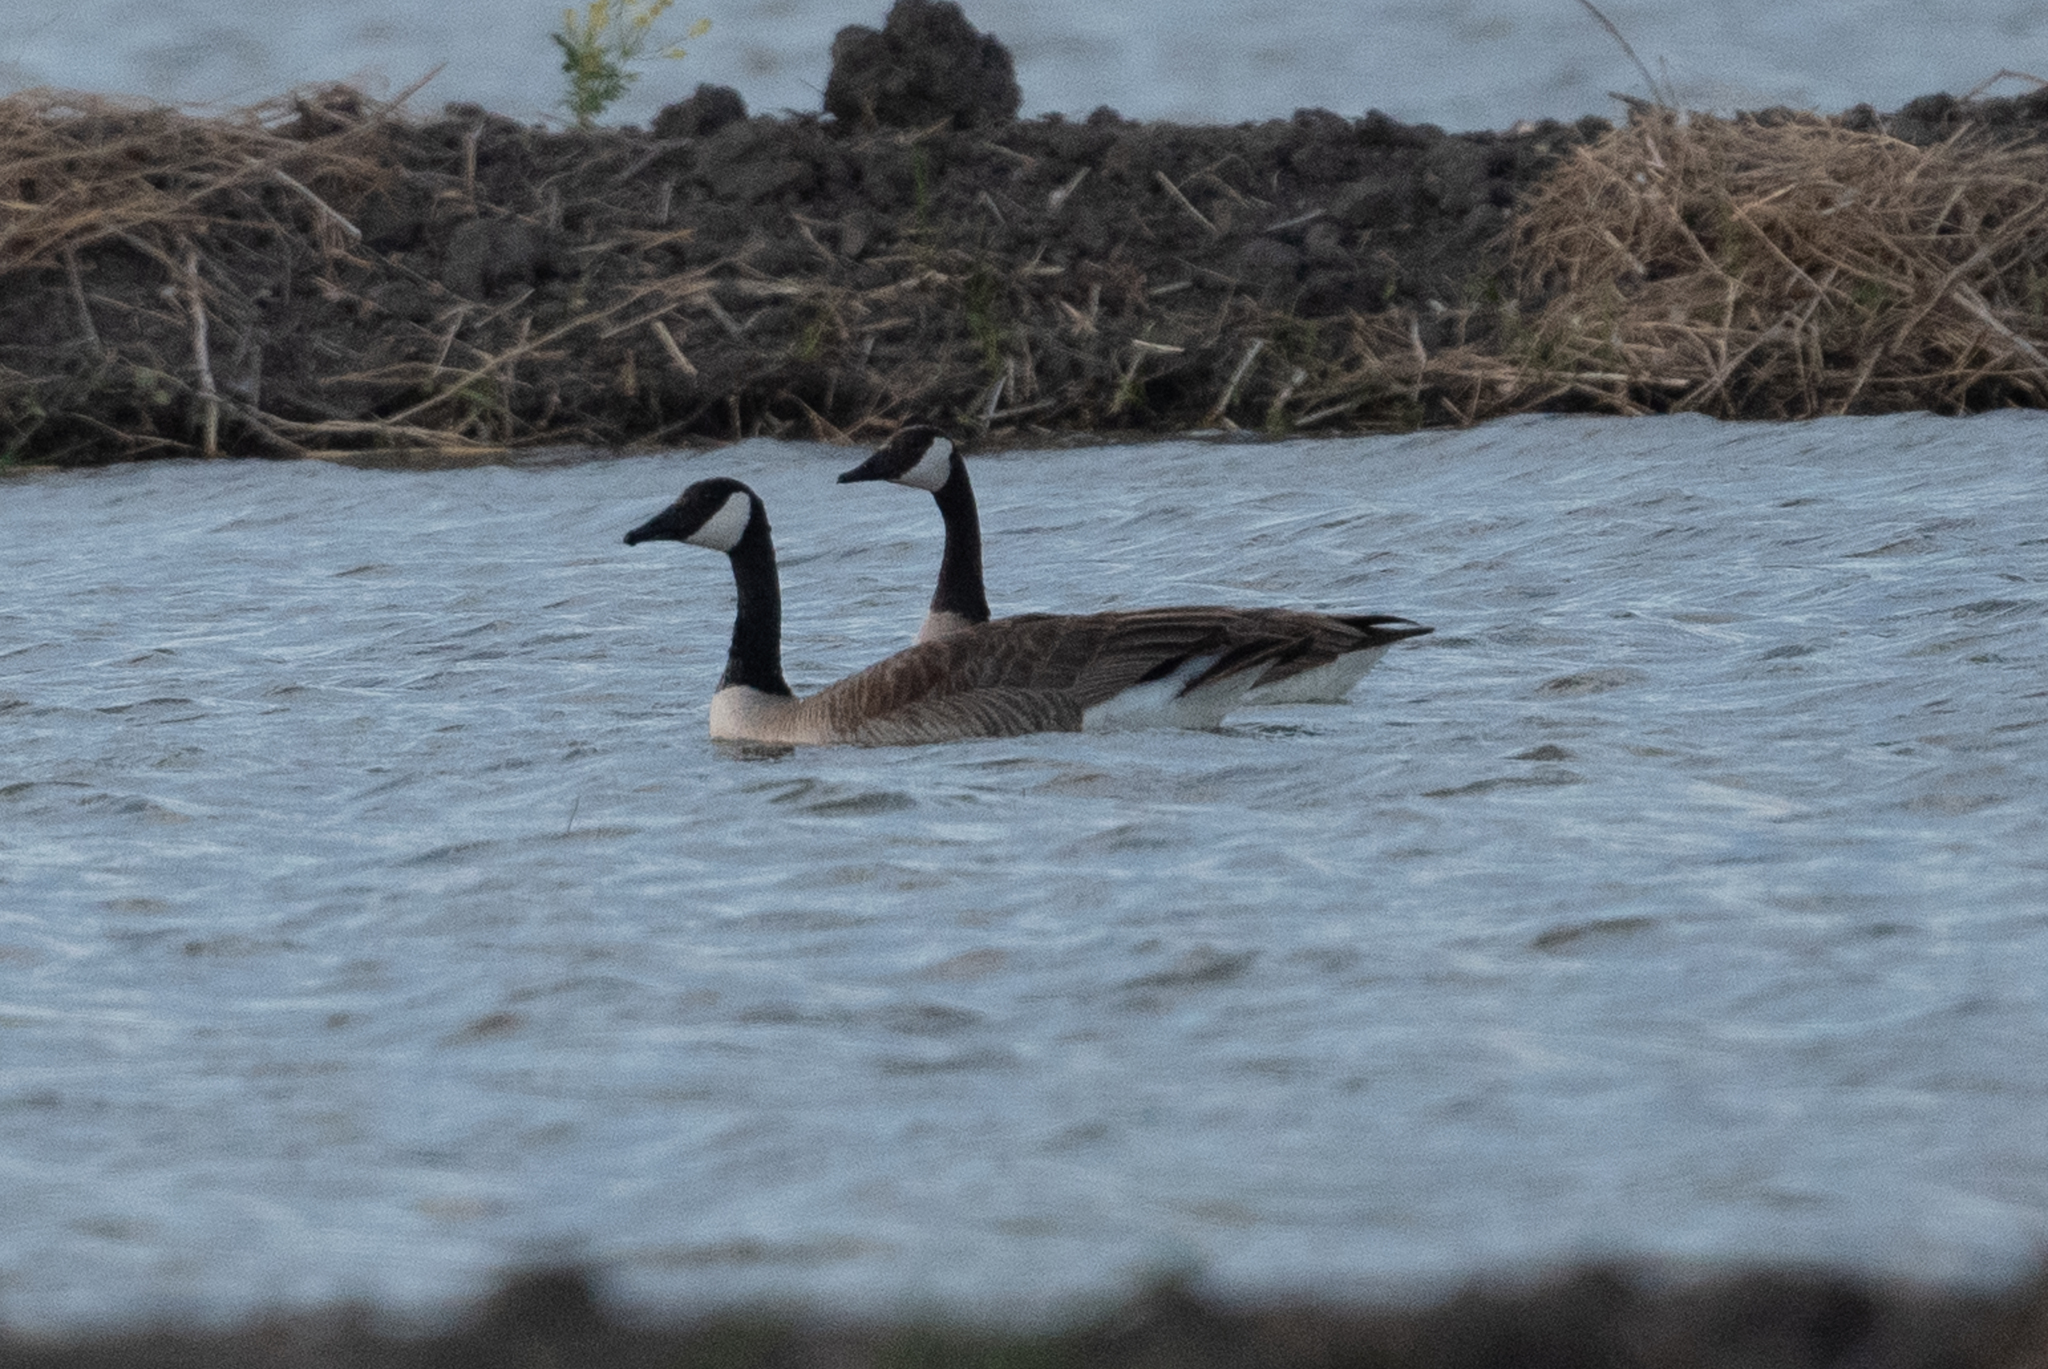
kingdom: Animalia
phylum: Chordata
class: Aves
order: Anseriformes
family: Anatidae
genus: Branta
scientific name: Branta canadensis
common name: Canada goose
